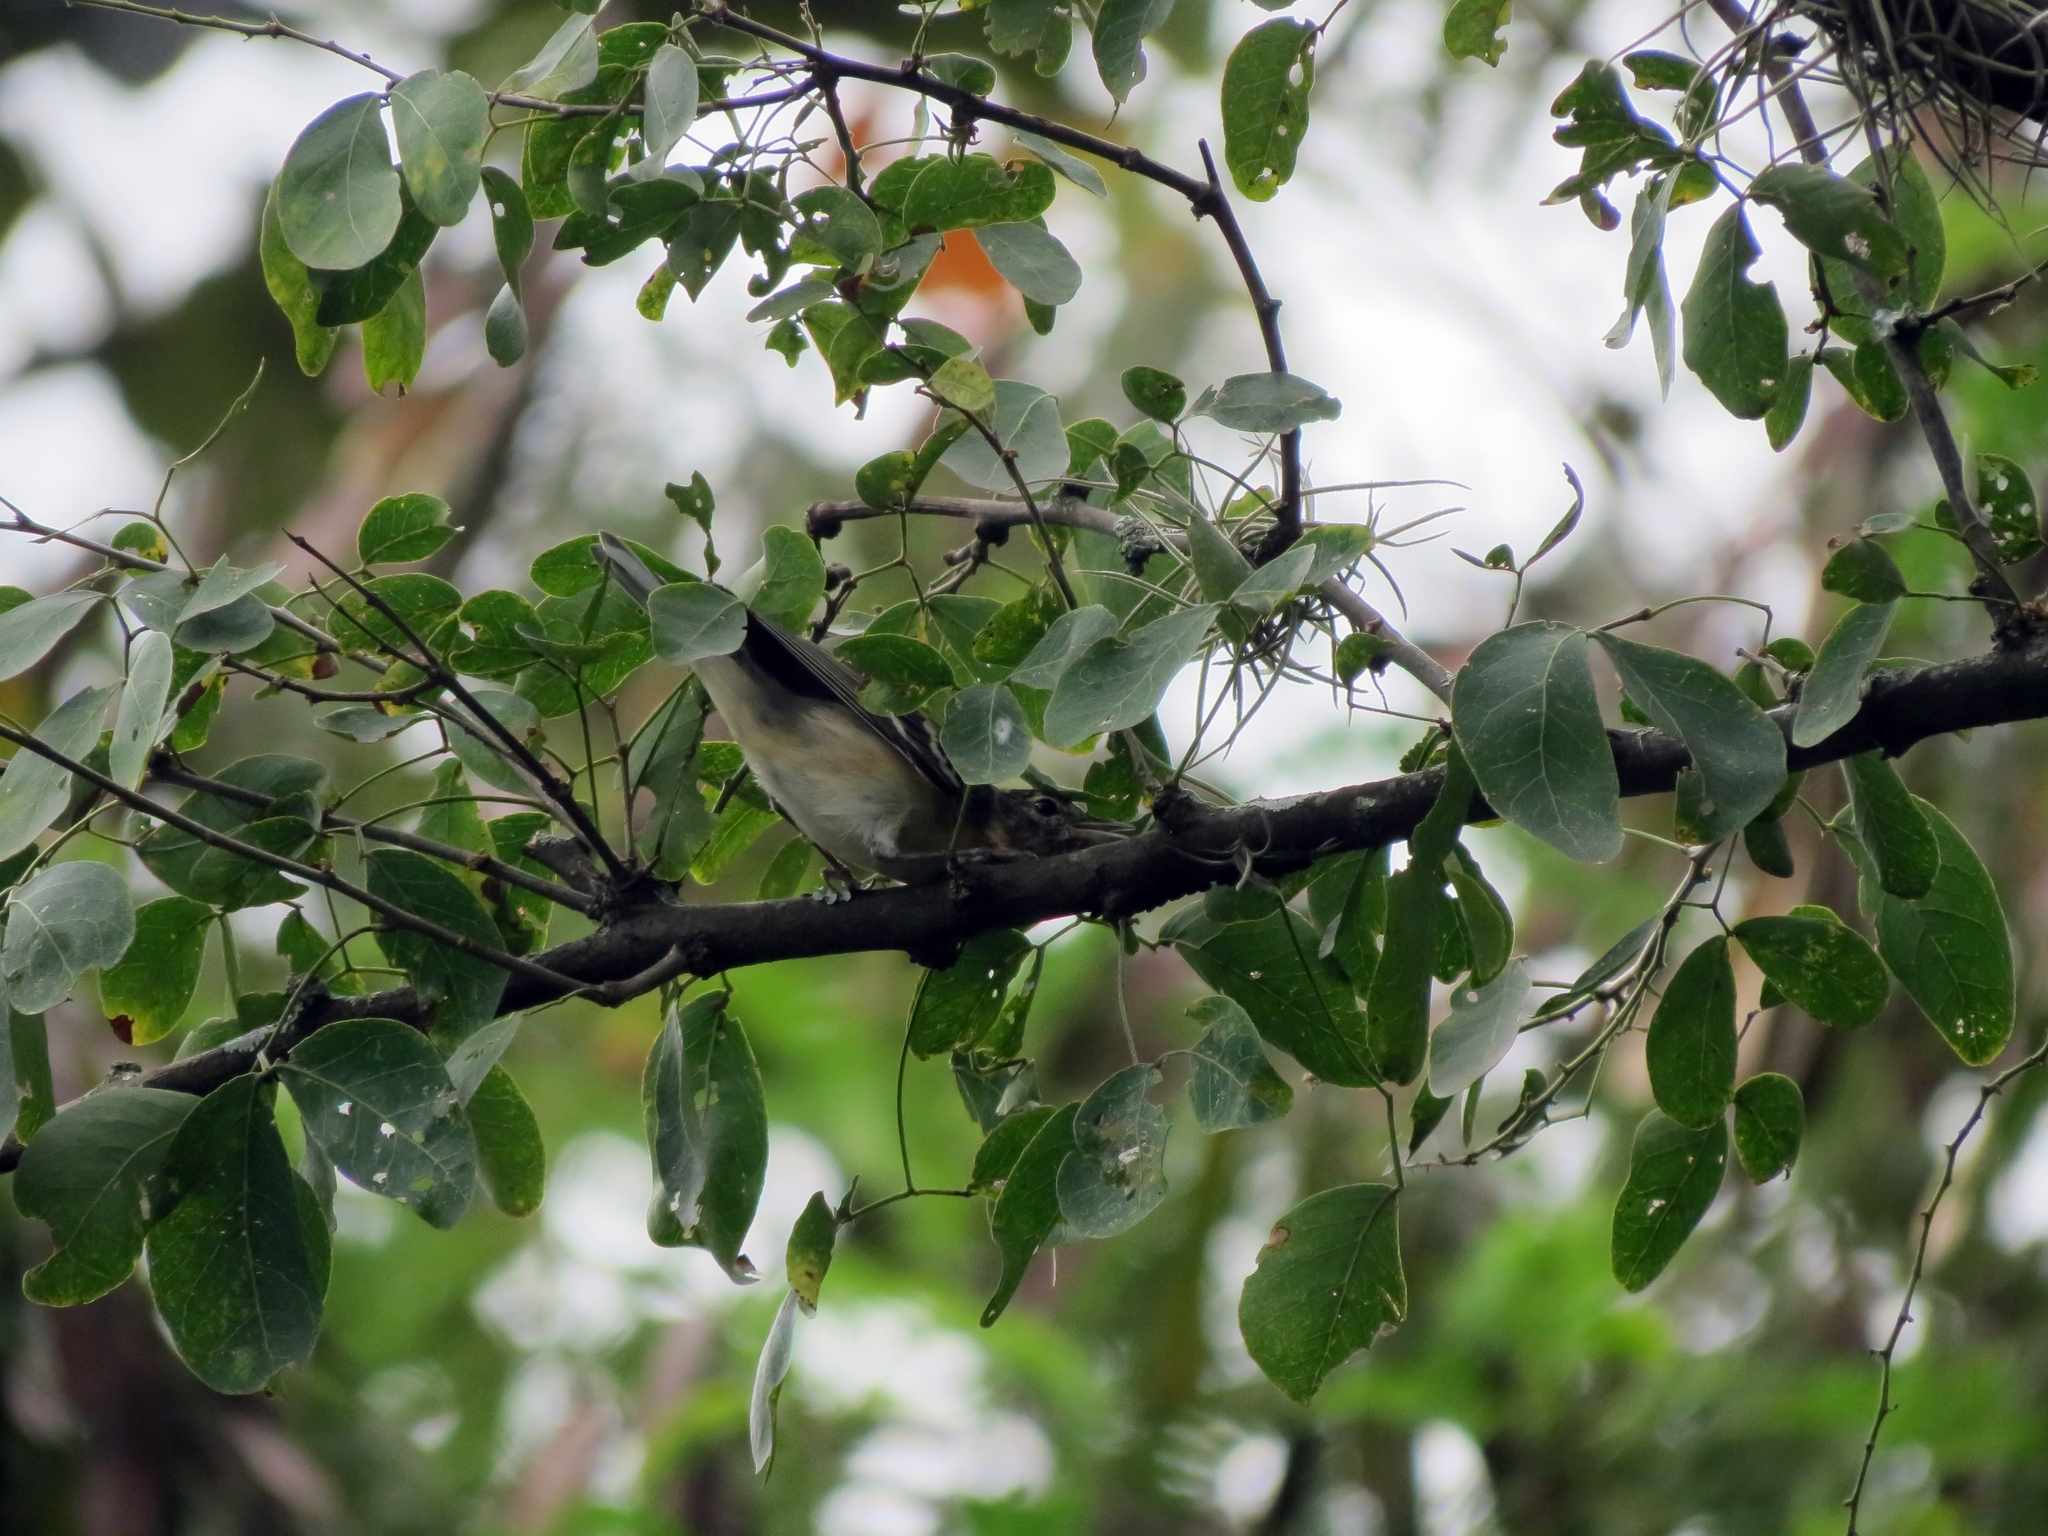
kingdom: Animalia
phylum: Chordata
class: Aves
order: Passeriformes
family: Parulidae
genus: Setophaga
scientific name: Setophaga castanea
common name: Bay-breasted warbler
